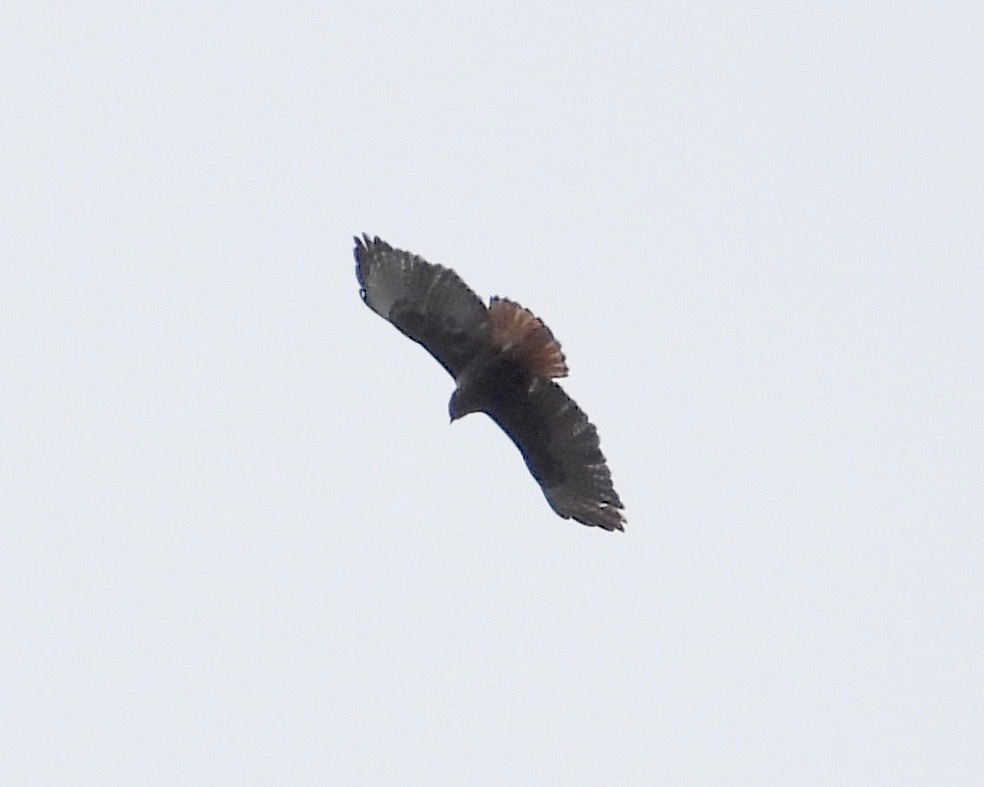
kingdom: Animalia
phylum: Chordata
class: Aves
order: Accipitriformes
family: Accipitridae
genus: Buteo
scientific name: Buteo jamaicensis
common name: Red-tailed hawk
